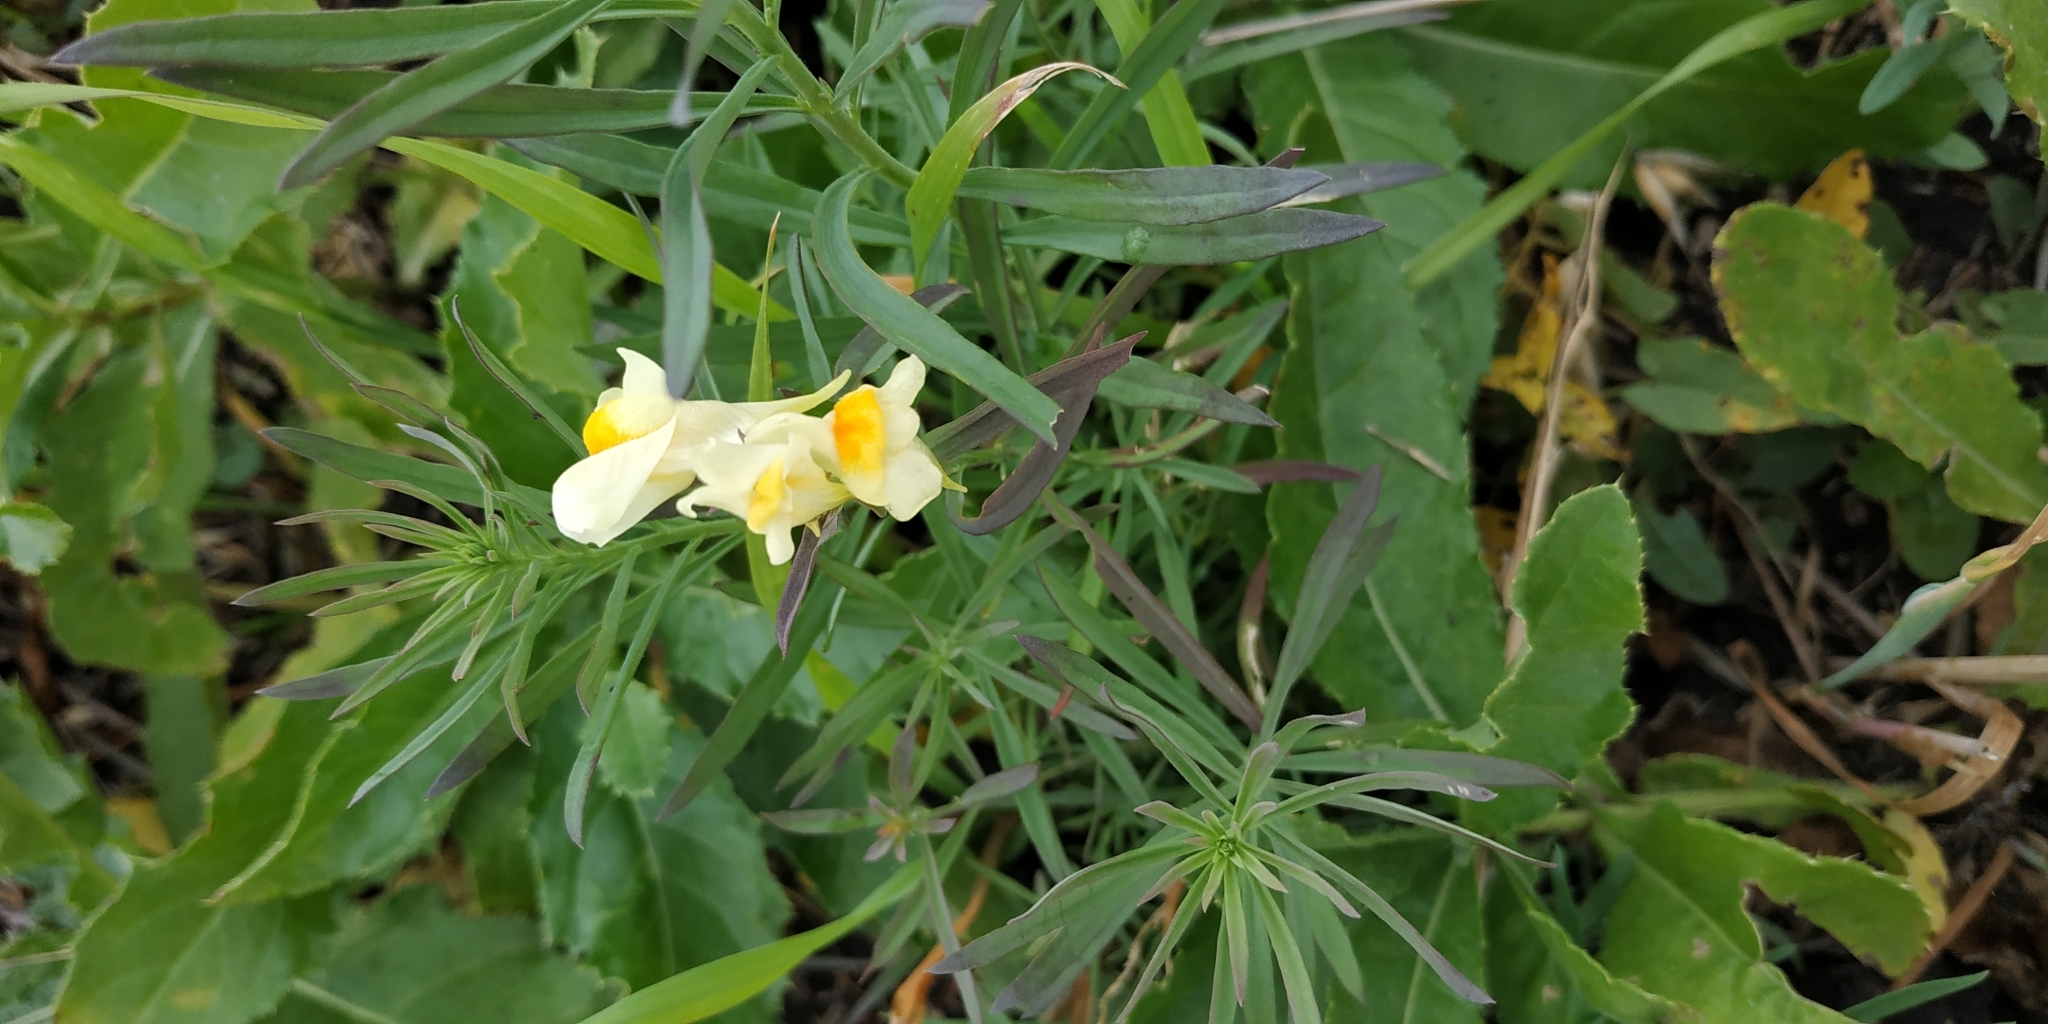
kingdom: Plantae
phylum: Tracheophyta
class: Magnoliopsida
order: Lamiales
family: Plantaginaceae
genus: Linaria
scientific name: Linaria vulgaris
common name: Butter and eggs
